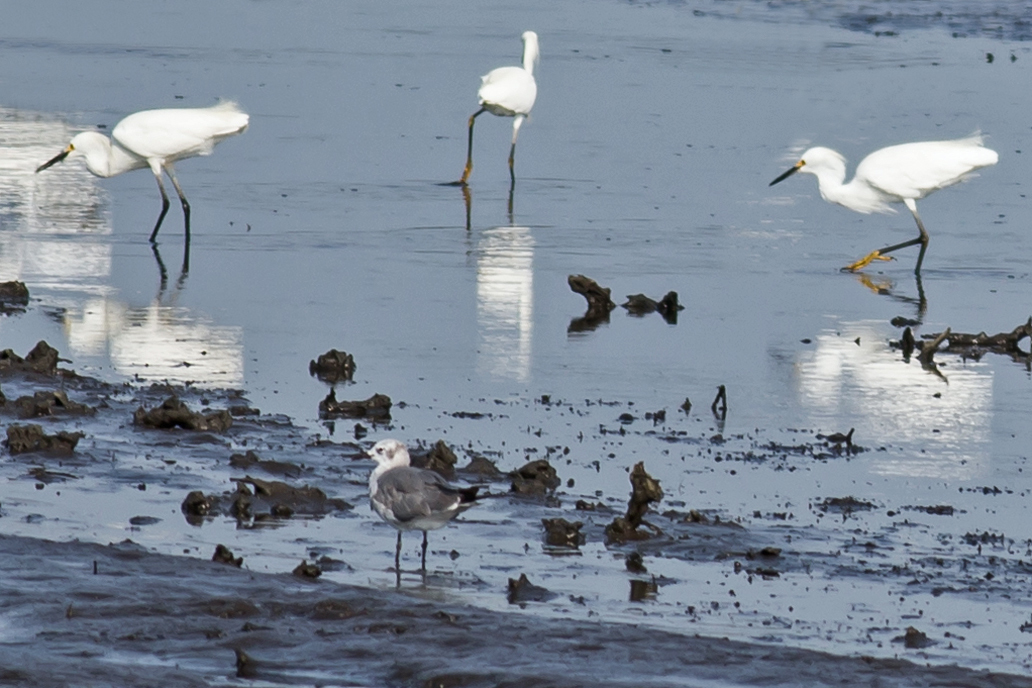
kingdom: Animalia
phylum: Chordata
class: Aves
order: Charadriiformes
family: Laridae
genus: Leucophaeus
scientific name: Leucophaeus atricilla
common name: Laughing gull
